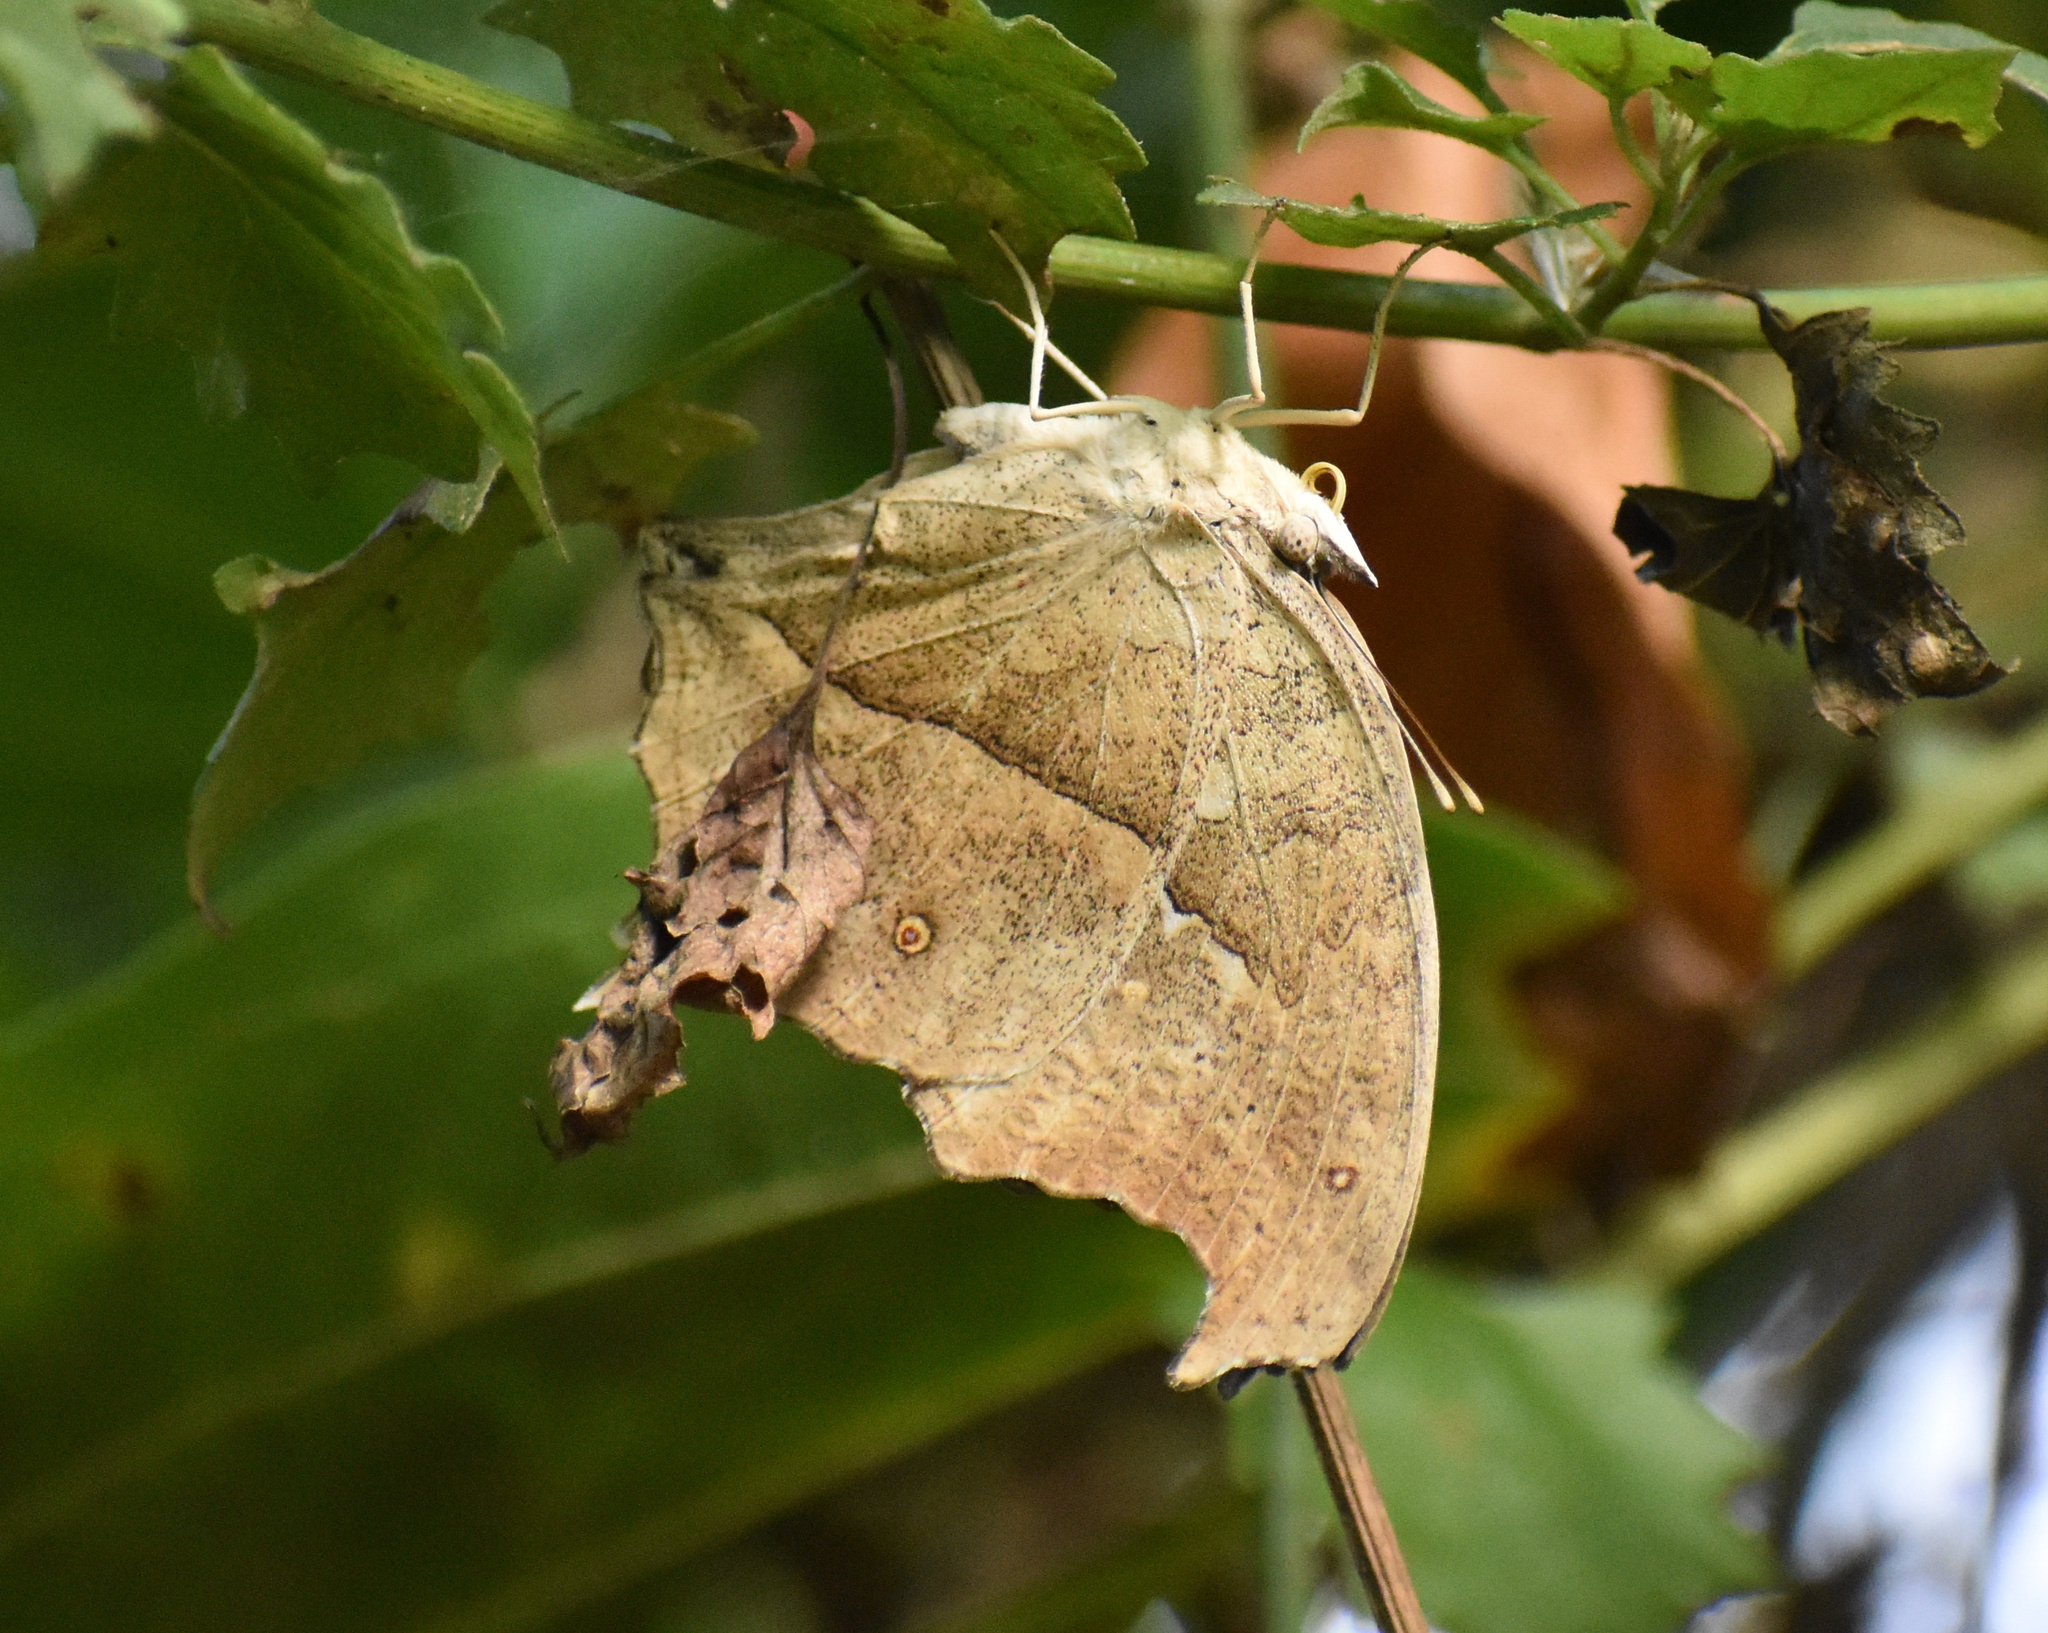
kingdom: Animalia
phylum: Arthropoda
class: Insecta
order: Lepidoptera
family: Nymphalidae
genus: Salamis
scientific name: Salamis Protogoniomorpha parhassus
